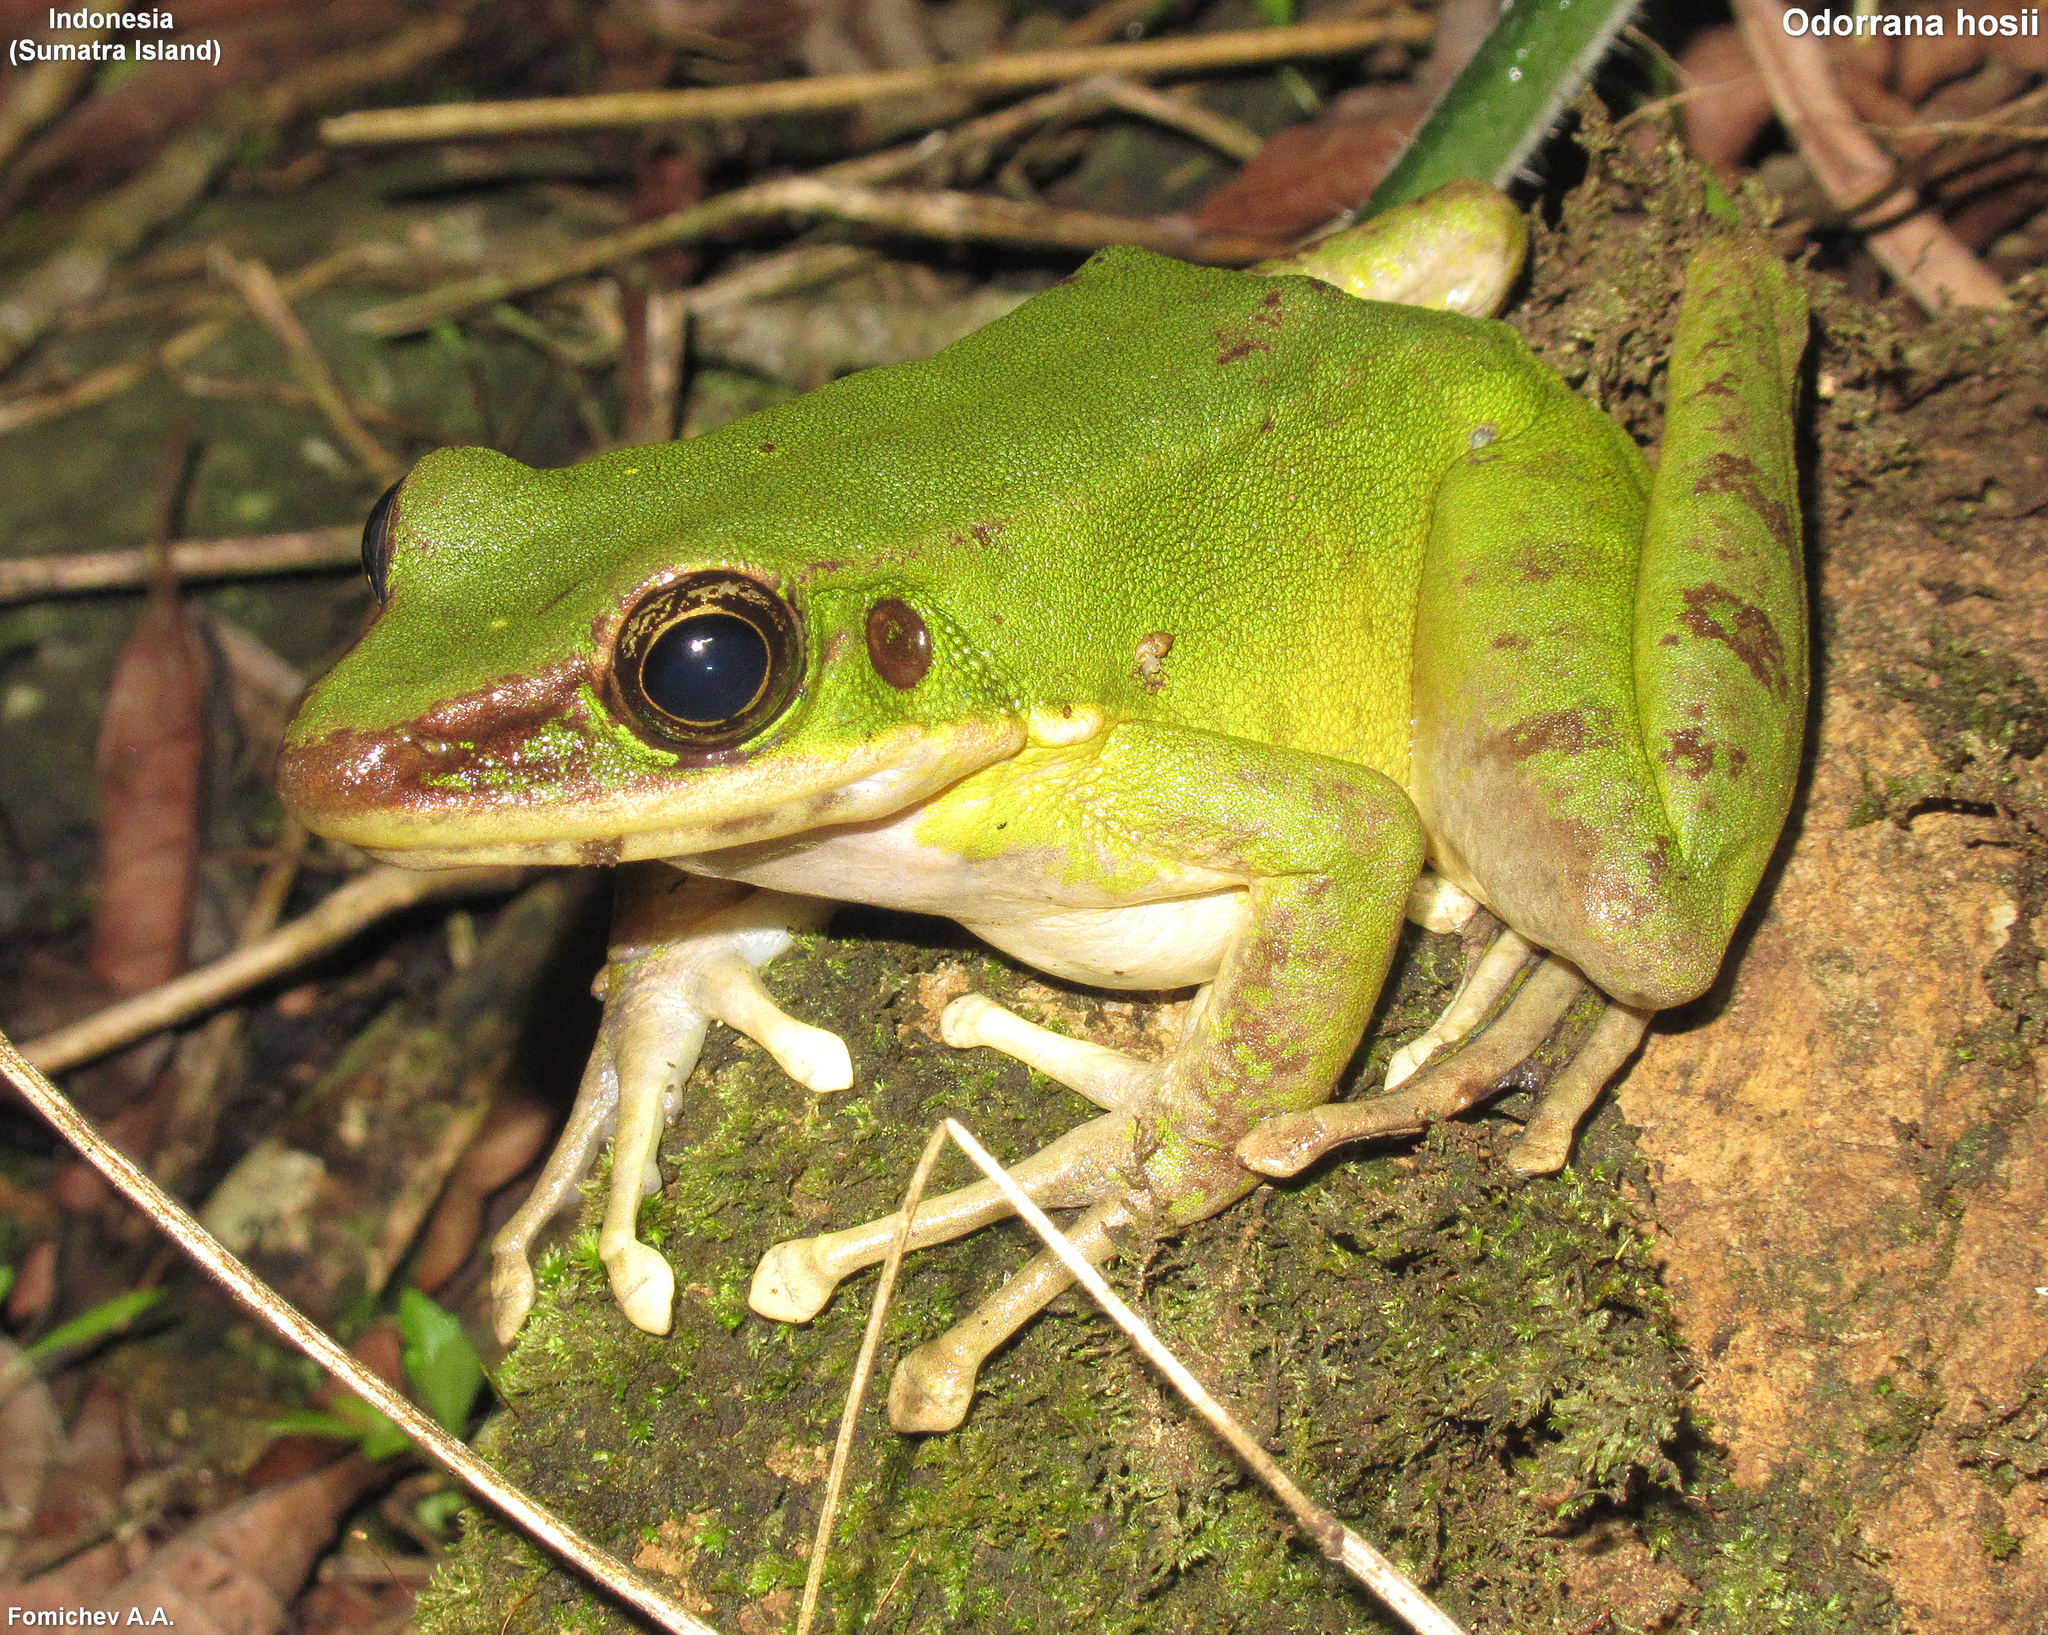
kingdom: Animalia
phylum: Chordata
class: Amphibia
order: Anura
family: Ranidae
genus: Odorrana
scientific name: Odorrana hosii
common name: Green tree frog
